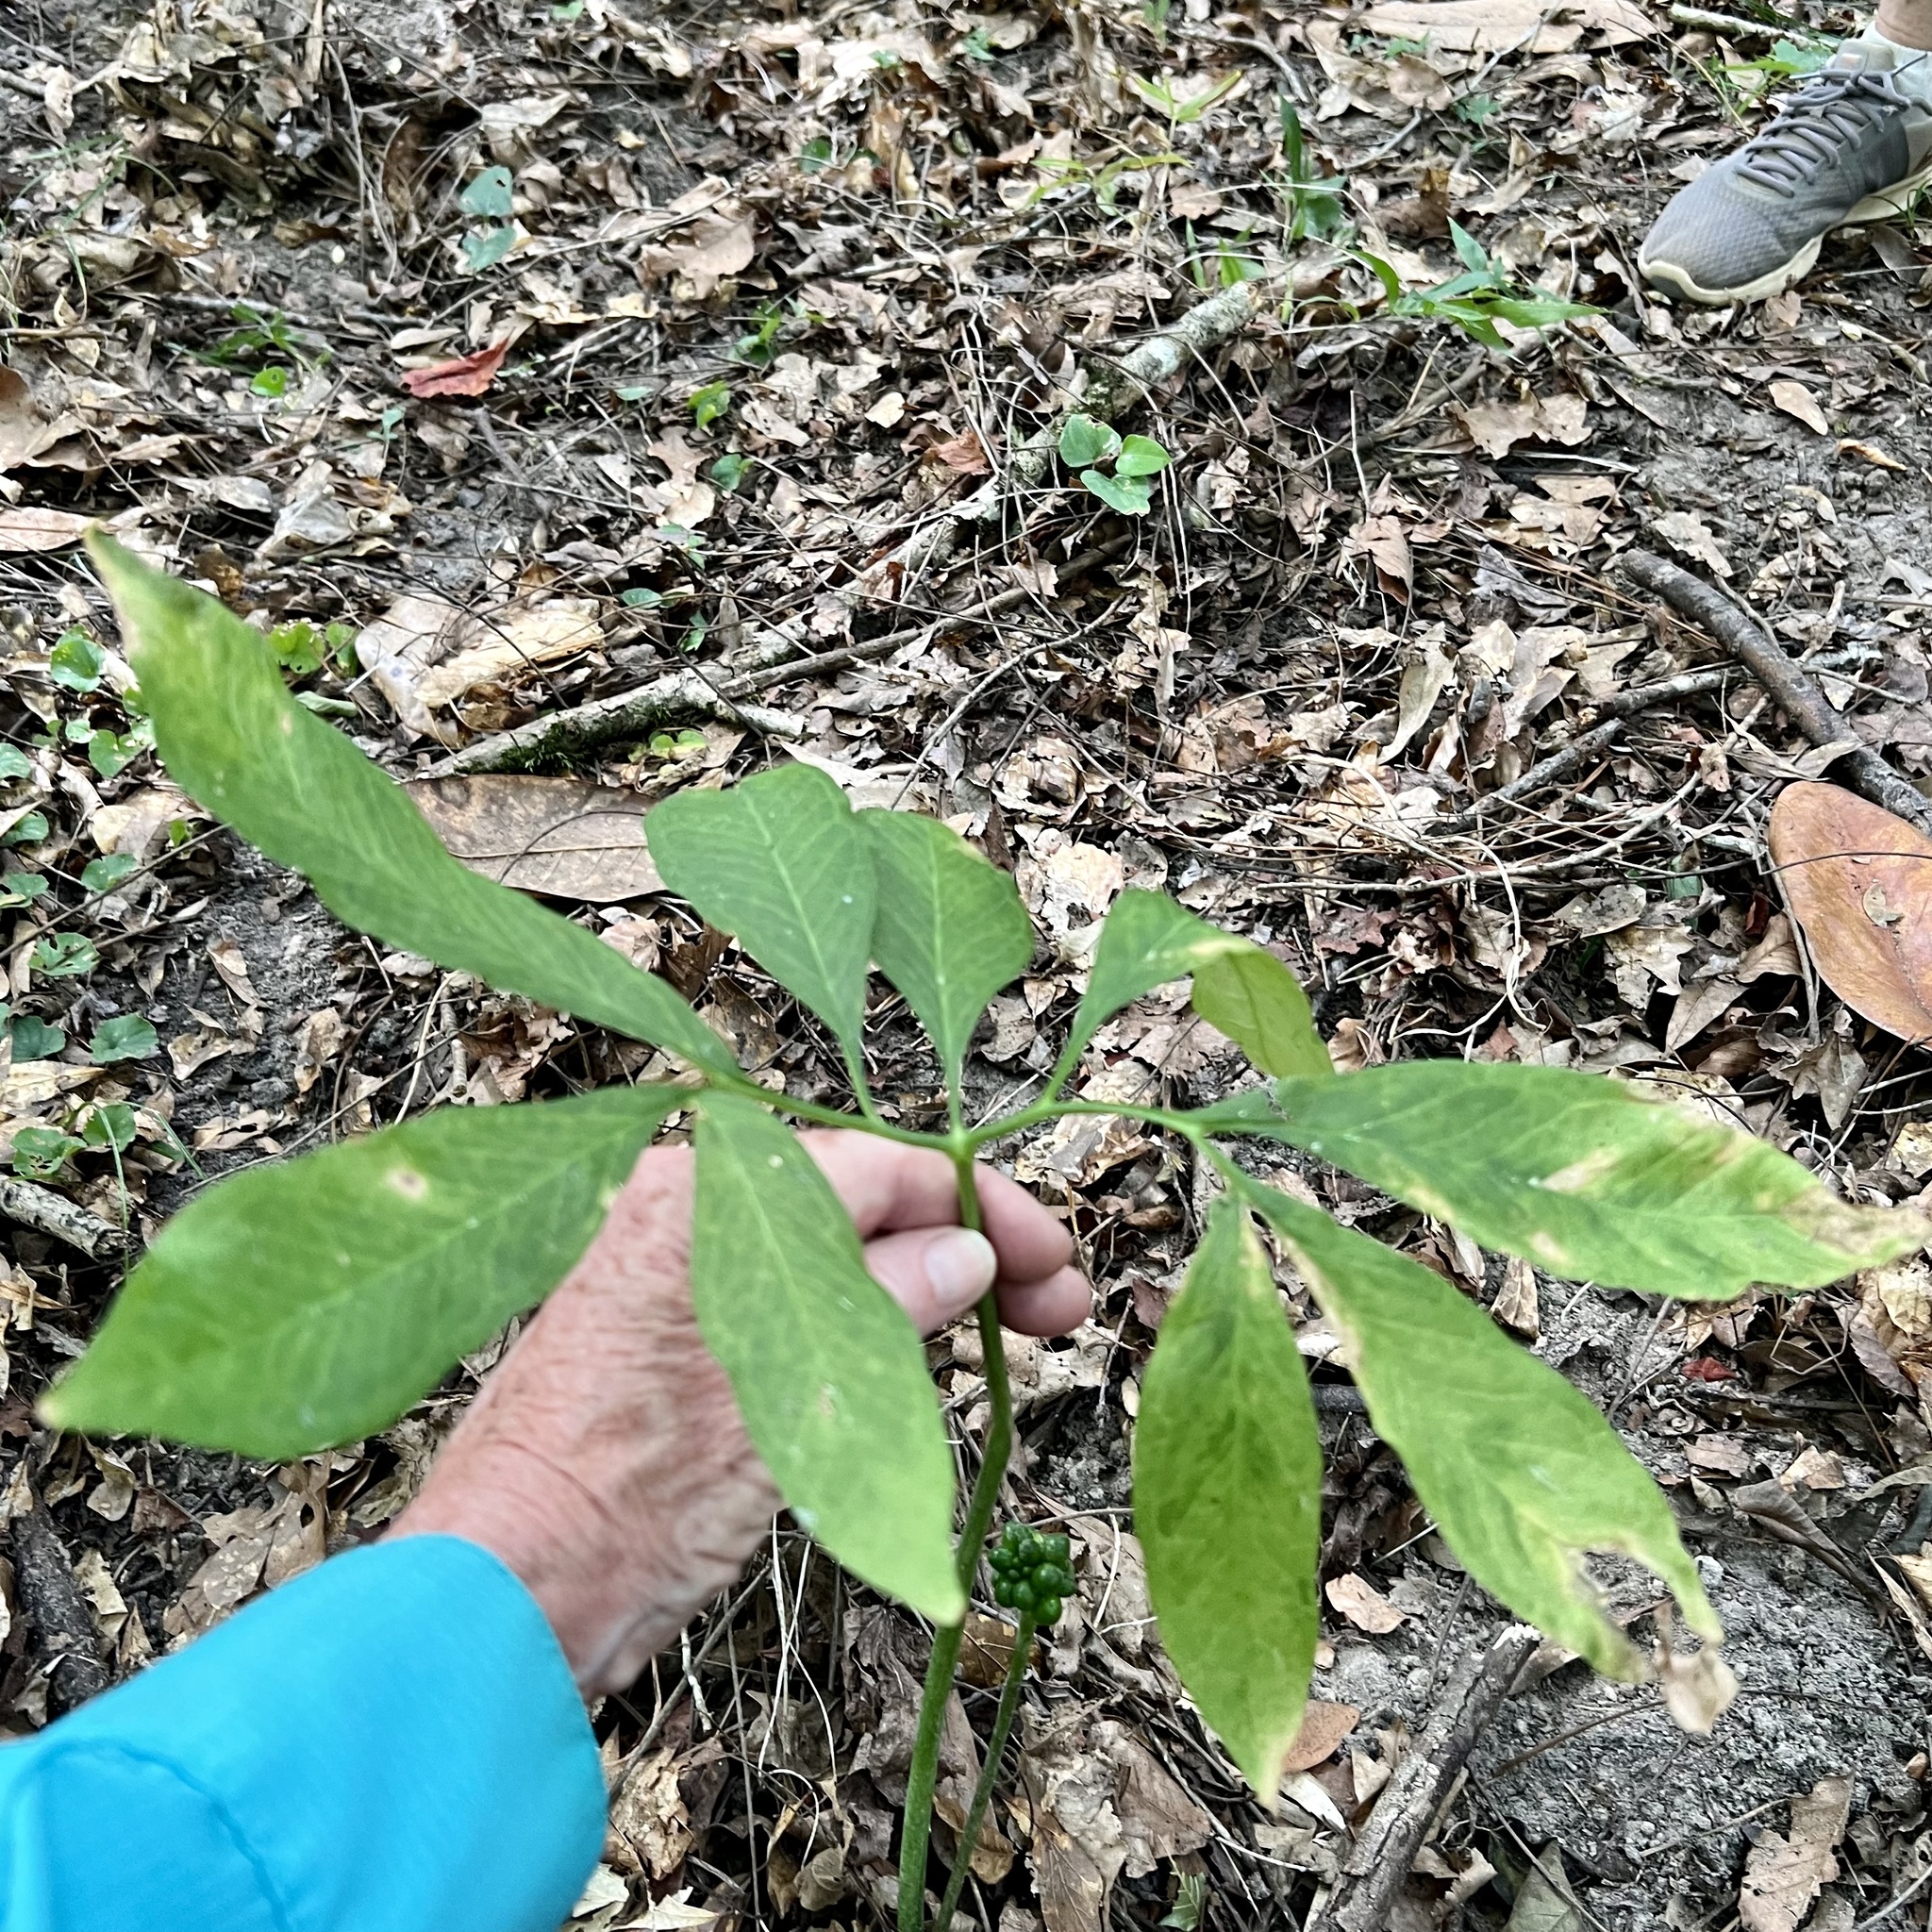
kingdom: Plantae
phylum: Tracheophyta
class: Liliopsida
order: Alismatales
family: Araceae
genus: Arisaema
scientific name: Arisaema dracontium
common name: Dragon-arum
